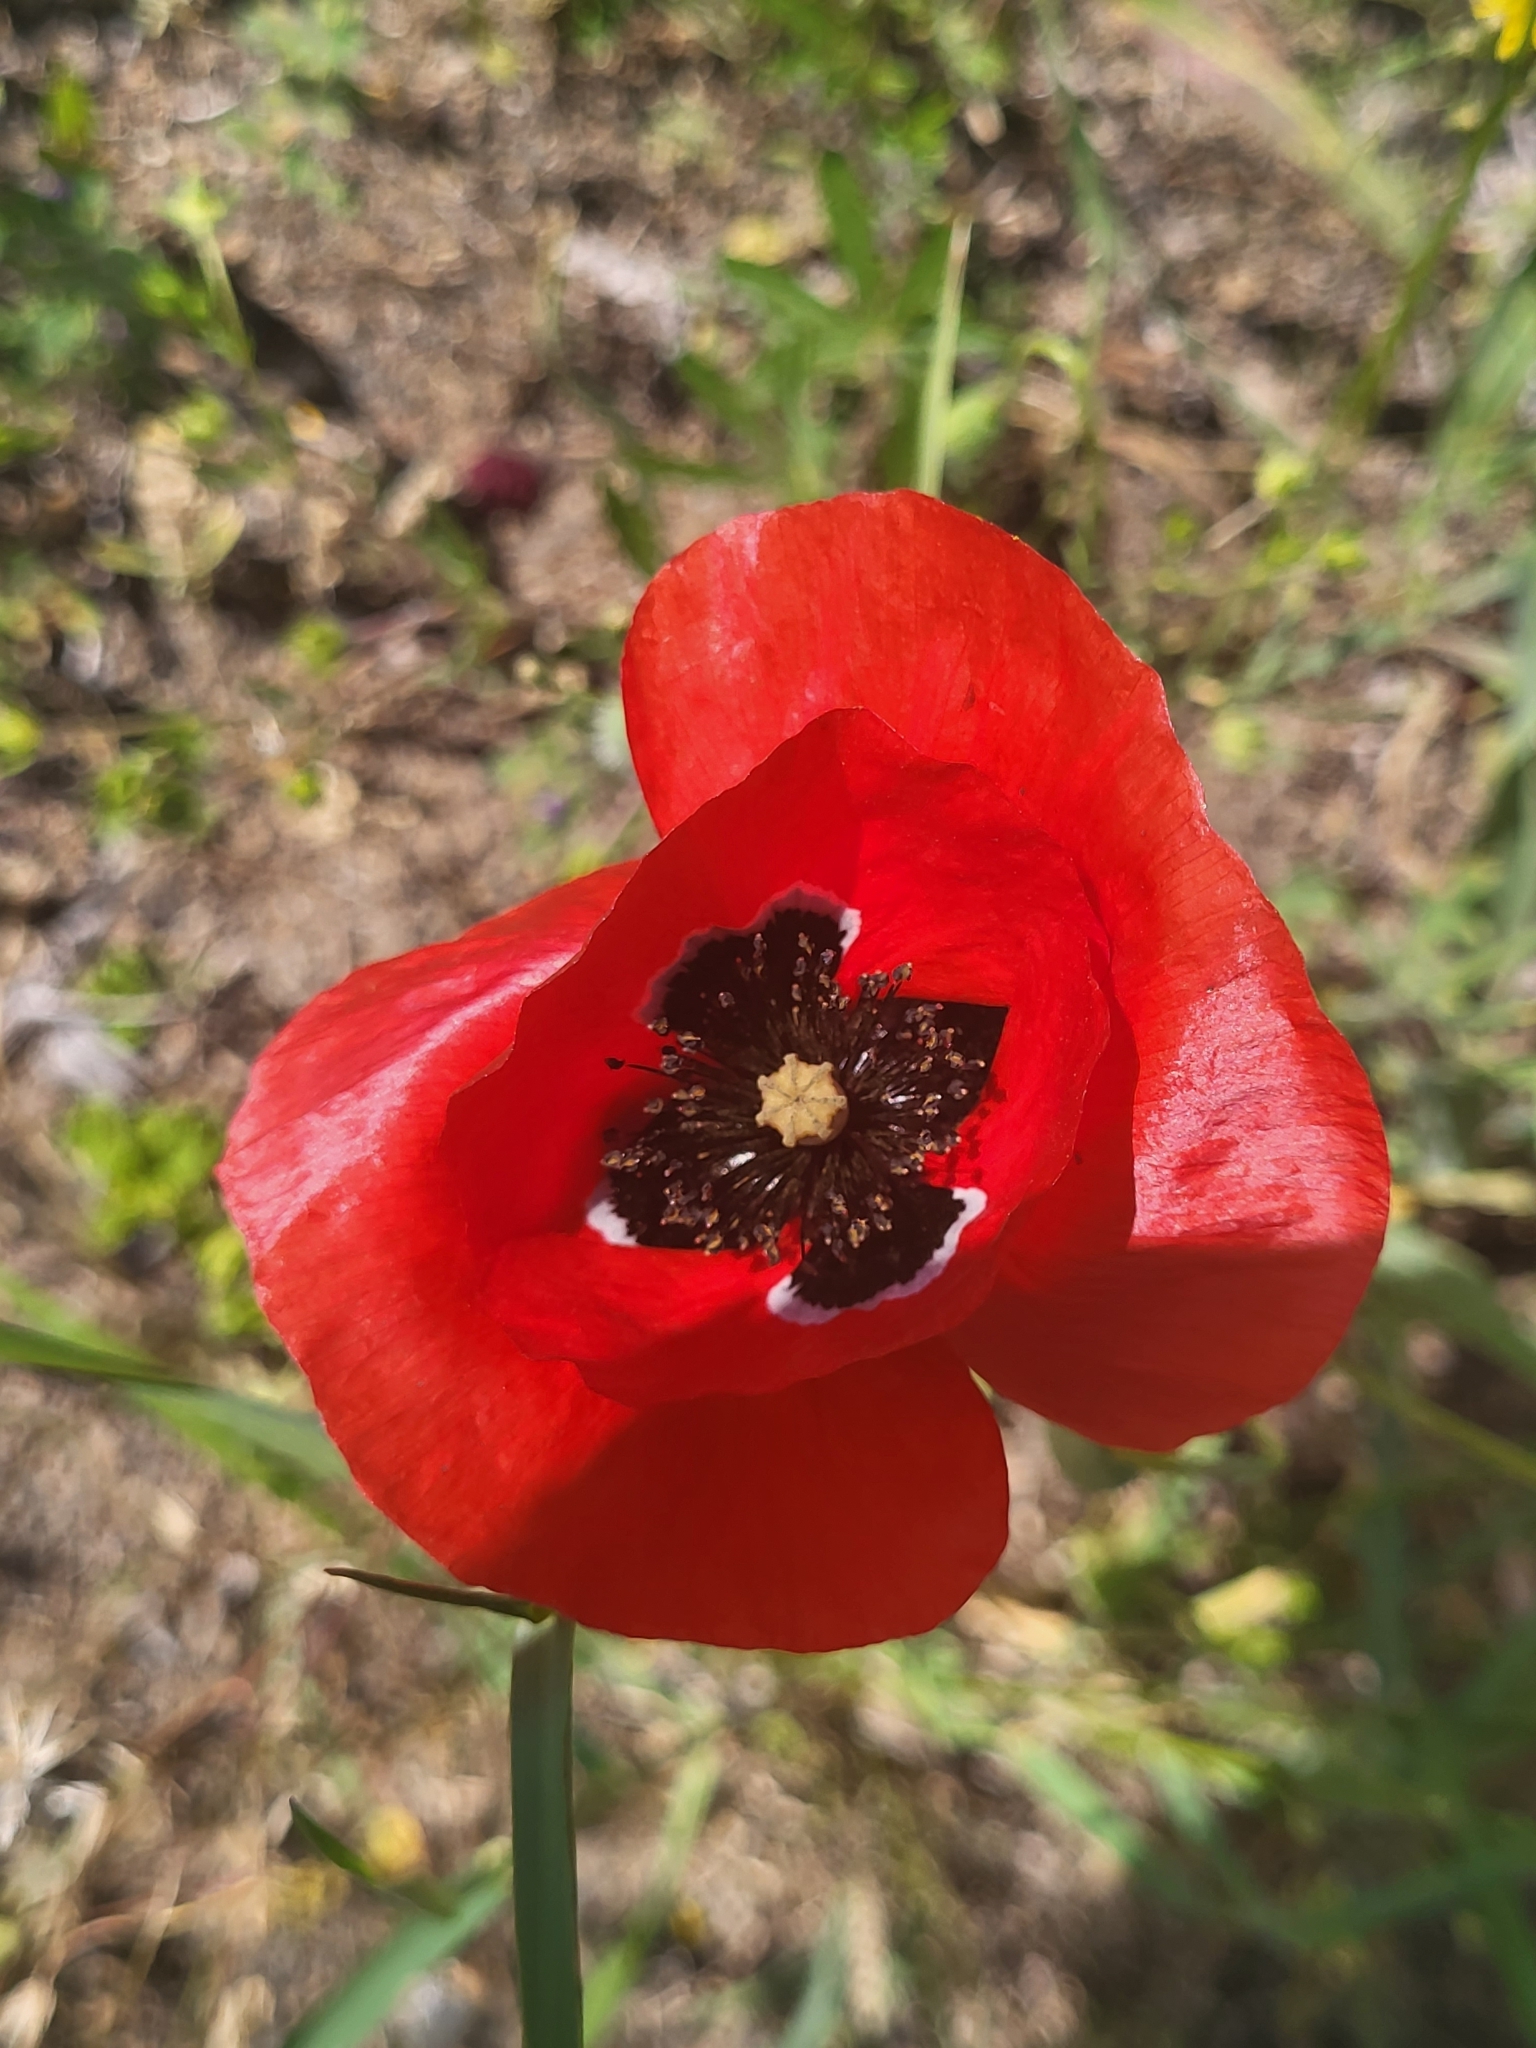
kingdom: Plantae
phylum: Tracheophyta
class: Magnoliopsida
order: Ranunculales
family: Papaveraceae
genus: Papaver
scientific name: Papaver rhoeas
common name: Corn poppy
